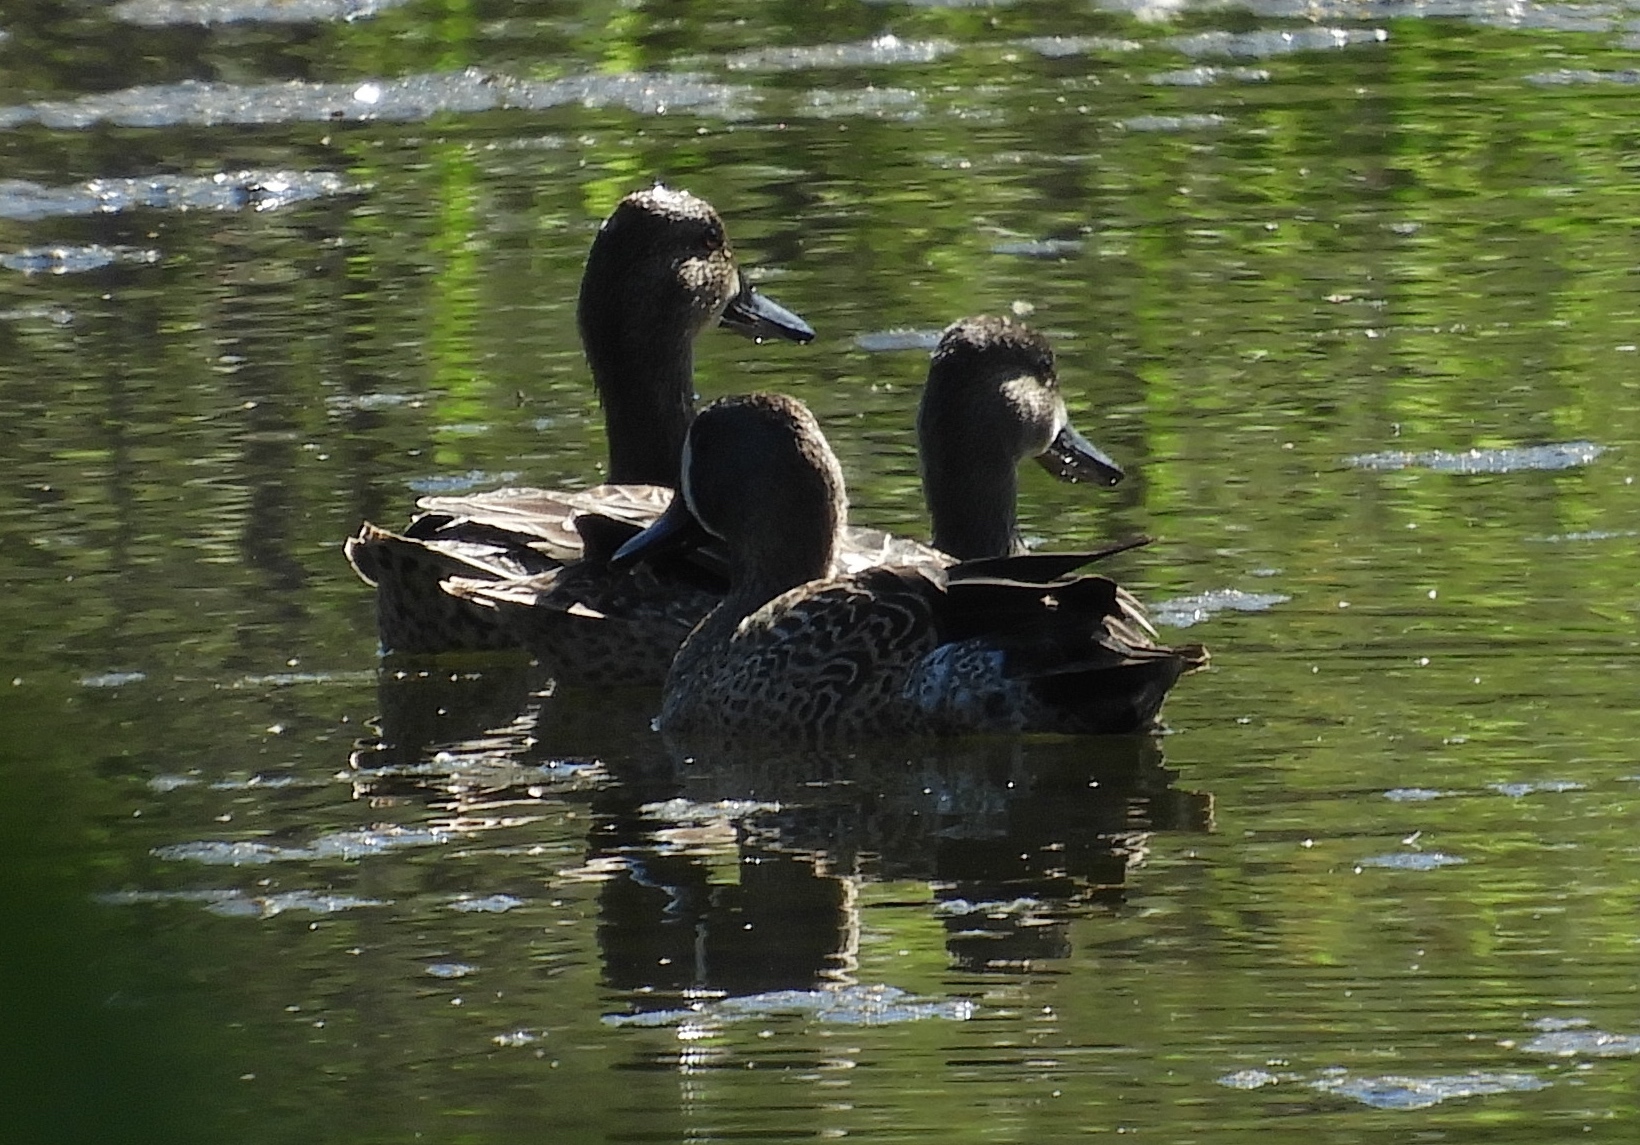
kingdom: Animalia
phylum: Chordata
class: Aves
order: Anseriformes
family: Anatidae
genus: Spatula
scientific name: Spatula discors
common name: Blue-winged teal
